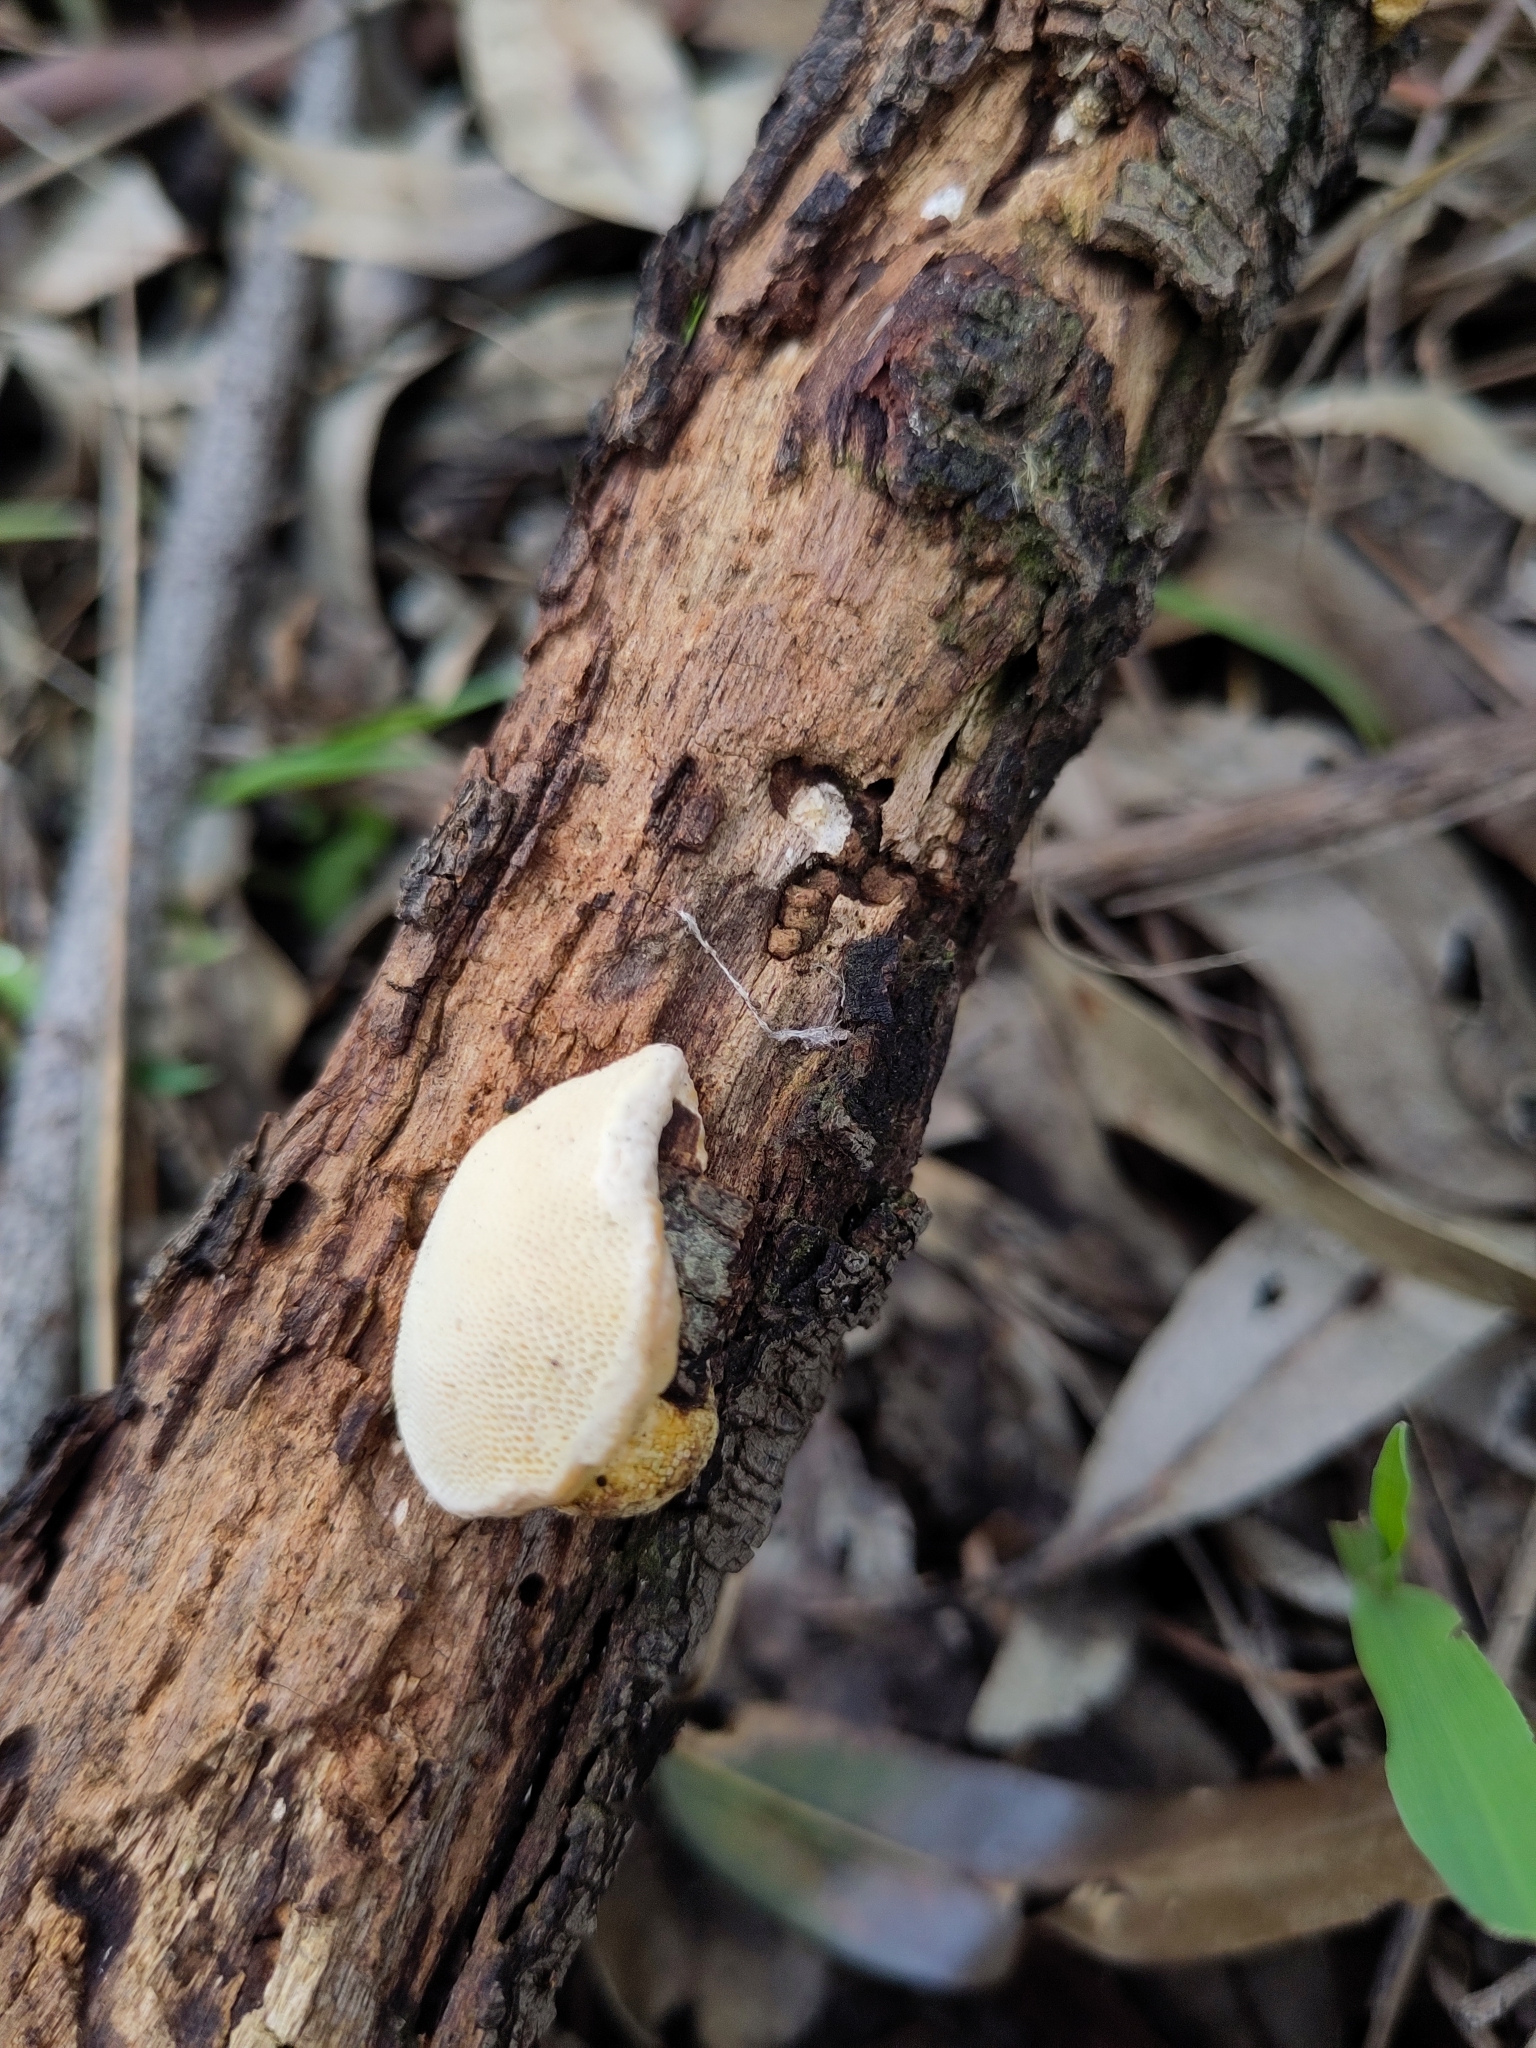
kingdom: Fungi
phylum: Basidiomycota
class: Agaricomycetes
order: Polyporales
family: Polyporaceae
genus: Truncospora
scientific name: Truncospora ochroleuca
